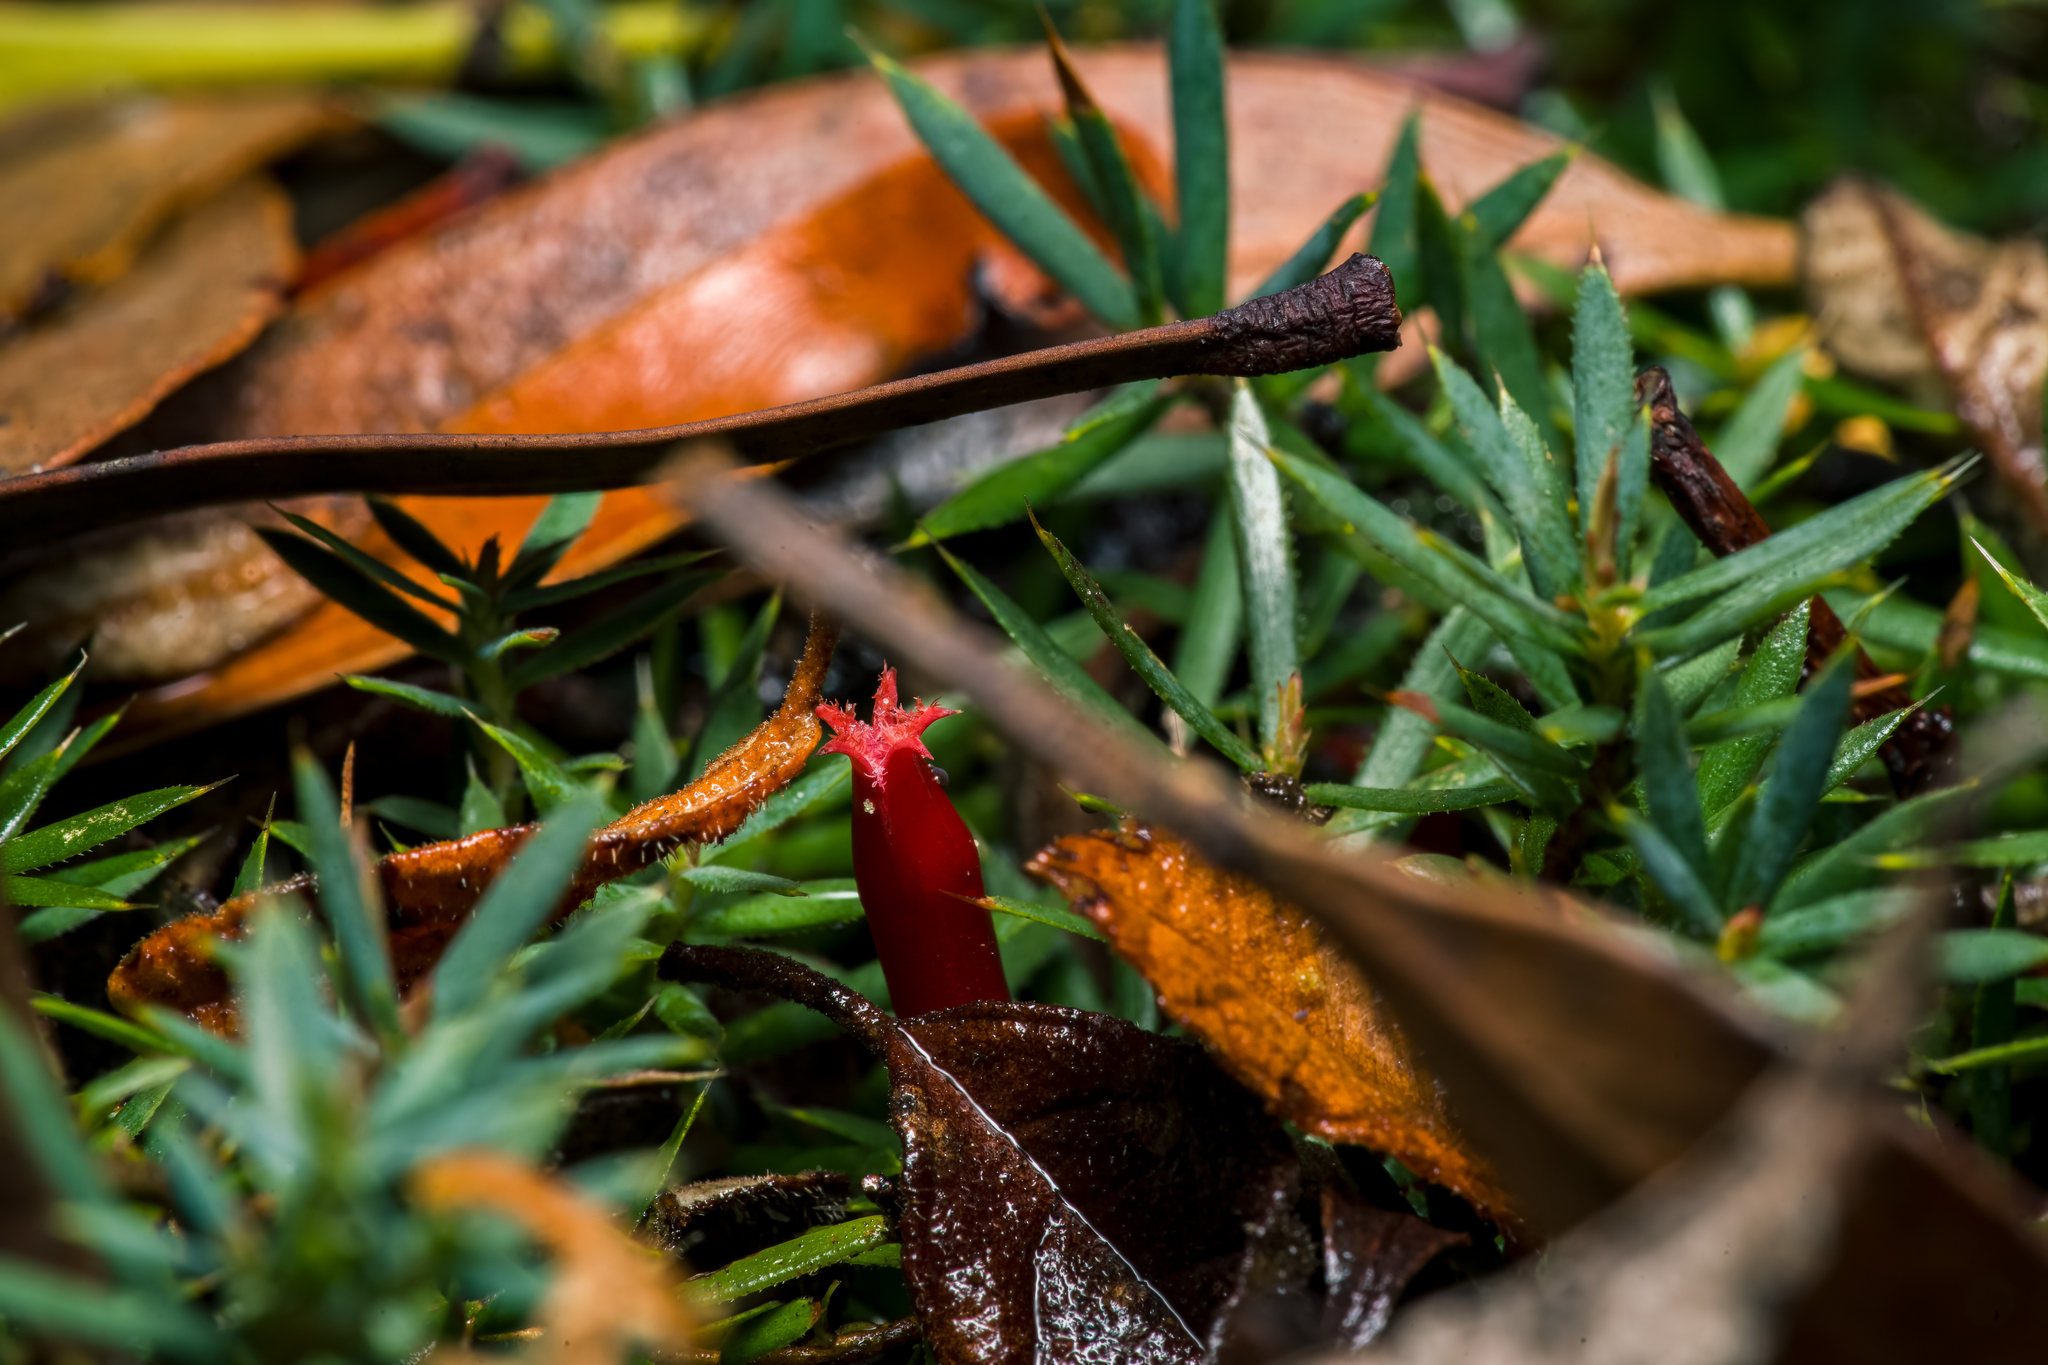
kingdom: Plantae
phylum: Tracheophyta
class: Magnoliopsida
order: Ericales
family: Ericaceae
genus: Styphelia
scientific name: Styphelia humifusa
